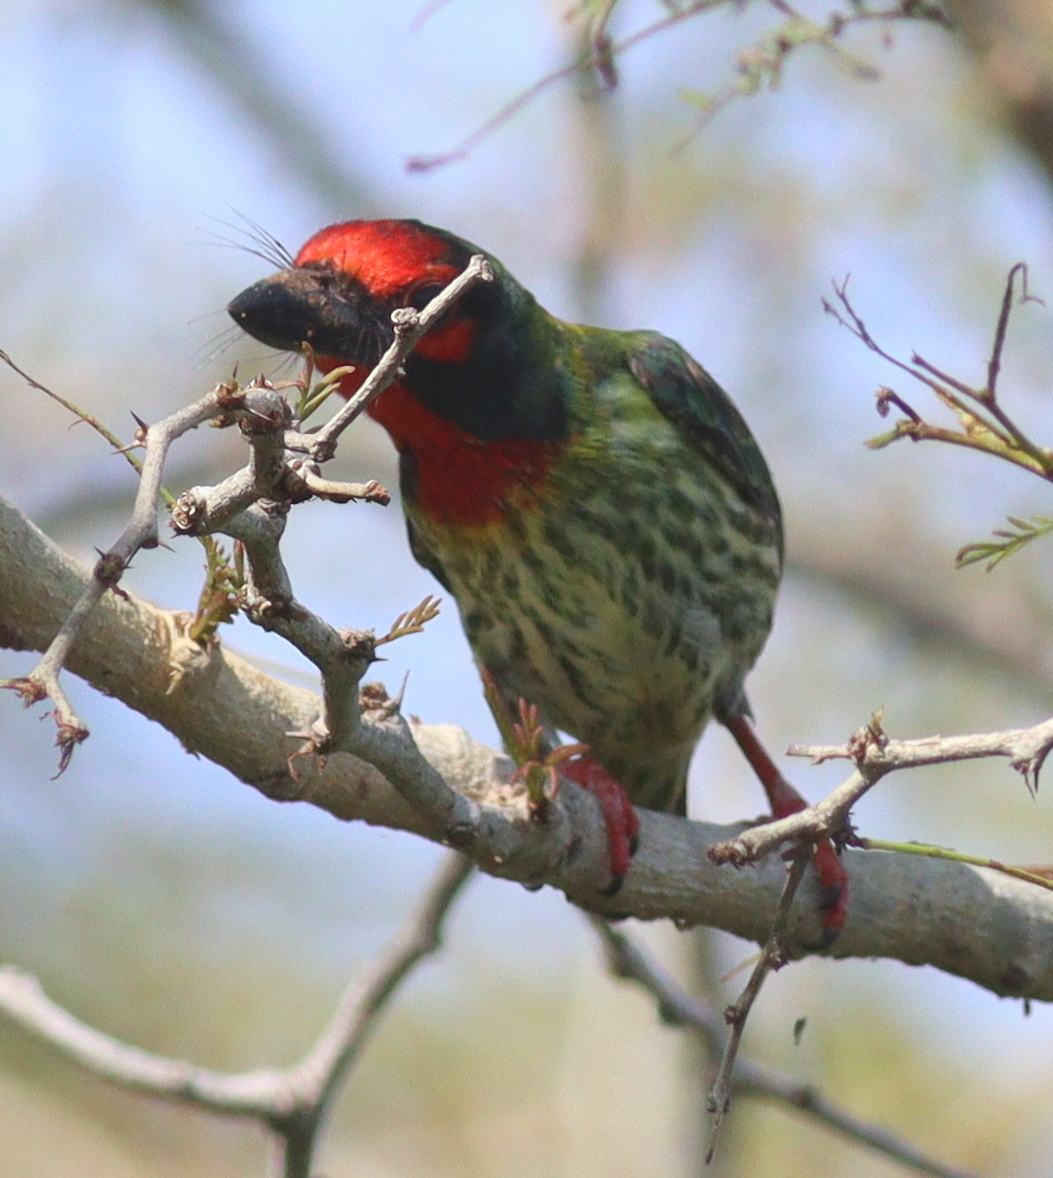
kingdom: Animalia
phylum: Chordata
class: Aves
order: Piciformes
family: Megalaimidae
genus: Psilopogon
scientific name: Psilopogon haemacephalus
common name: Coppersmith barbet
